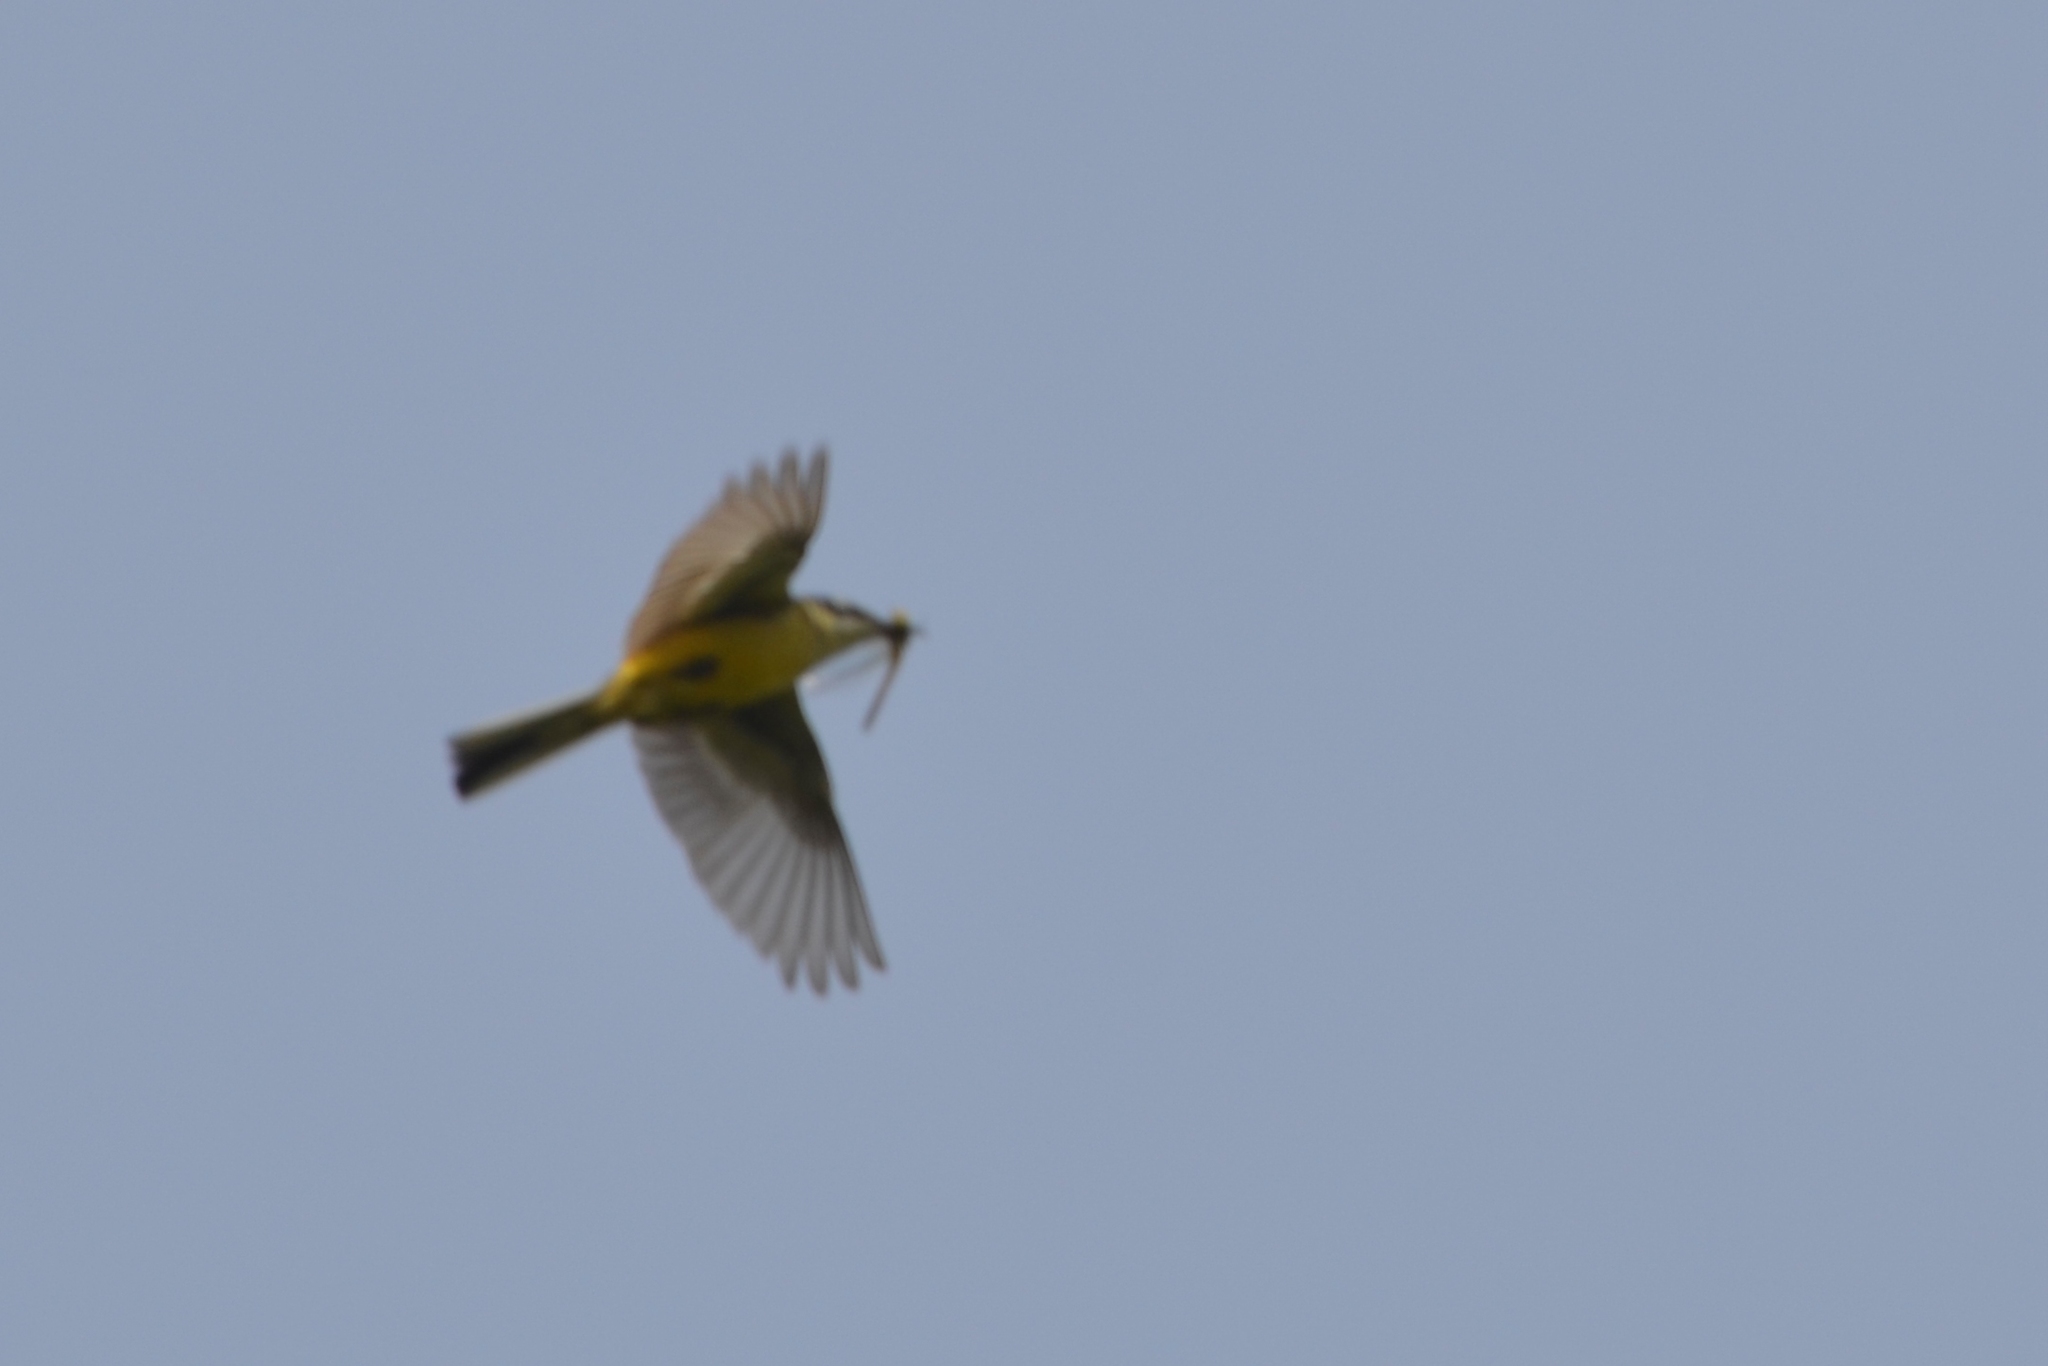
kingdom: Animalia
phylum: Chordata
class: Aves
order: Passeriformes
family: Motacillidae
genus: Motacilla
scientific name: Motacilla flava
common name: Western yellow wagtail
